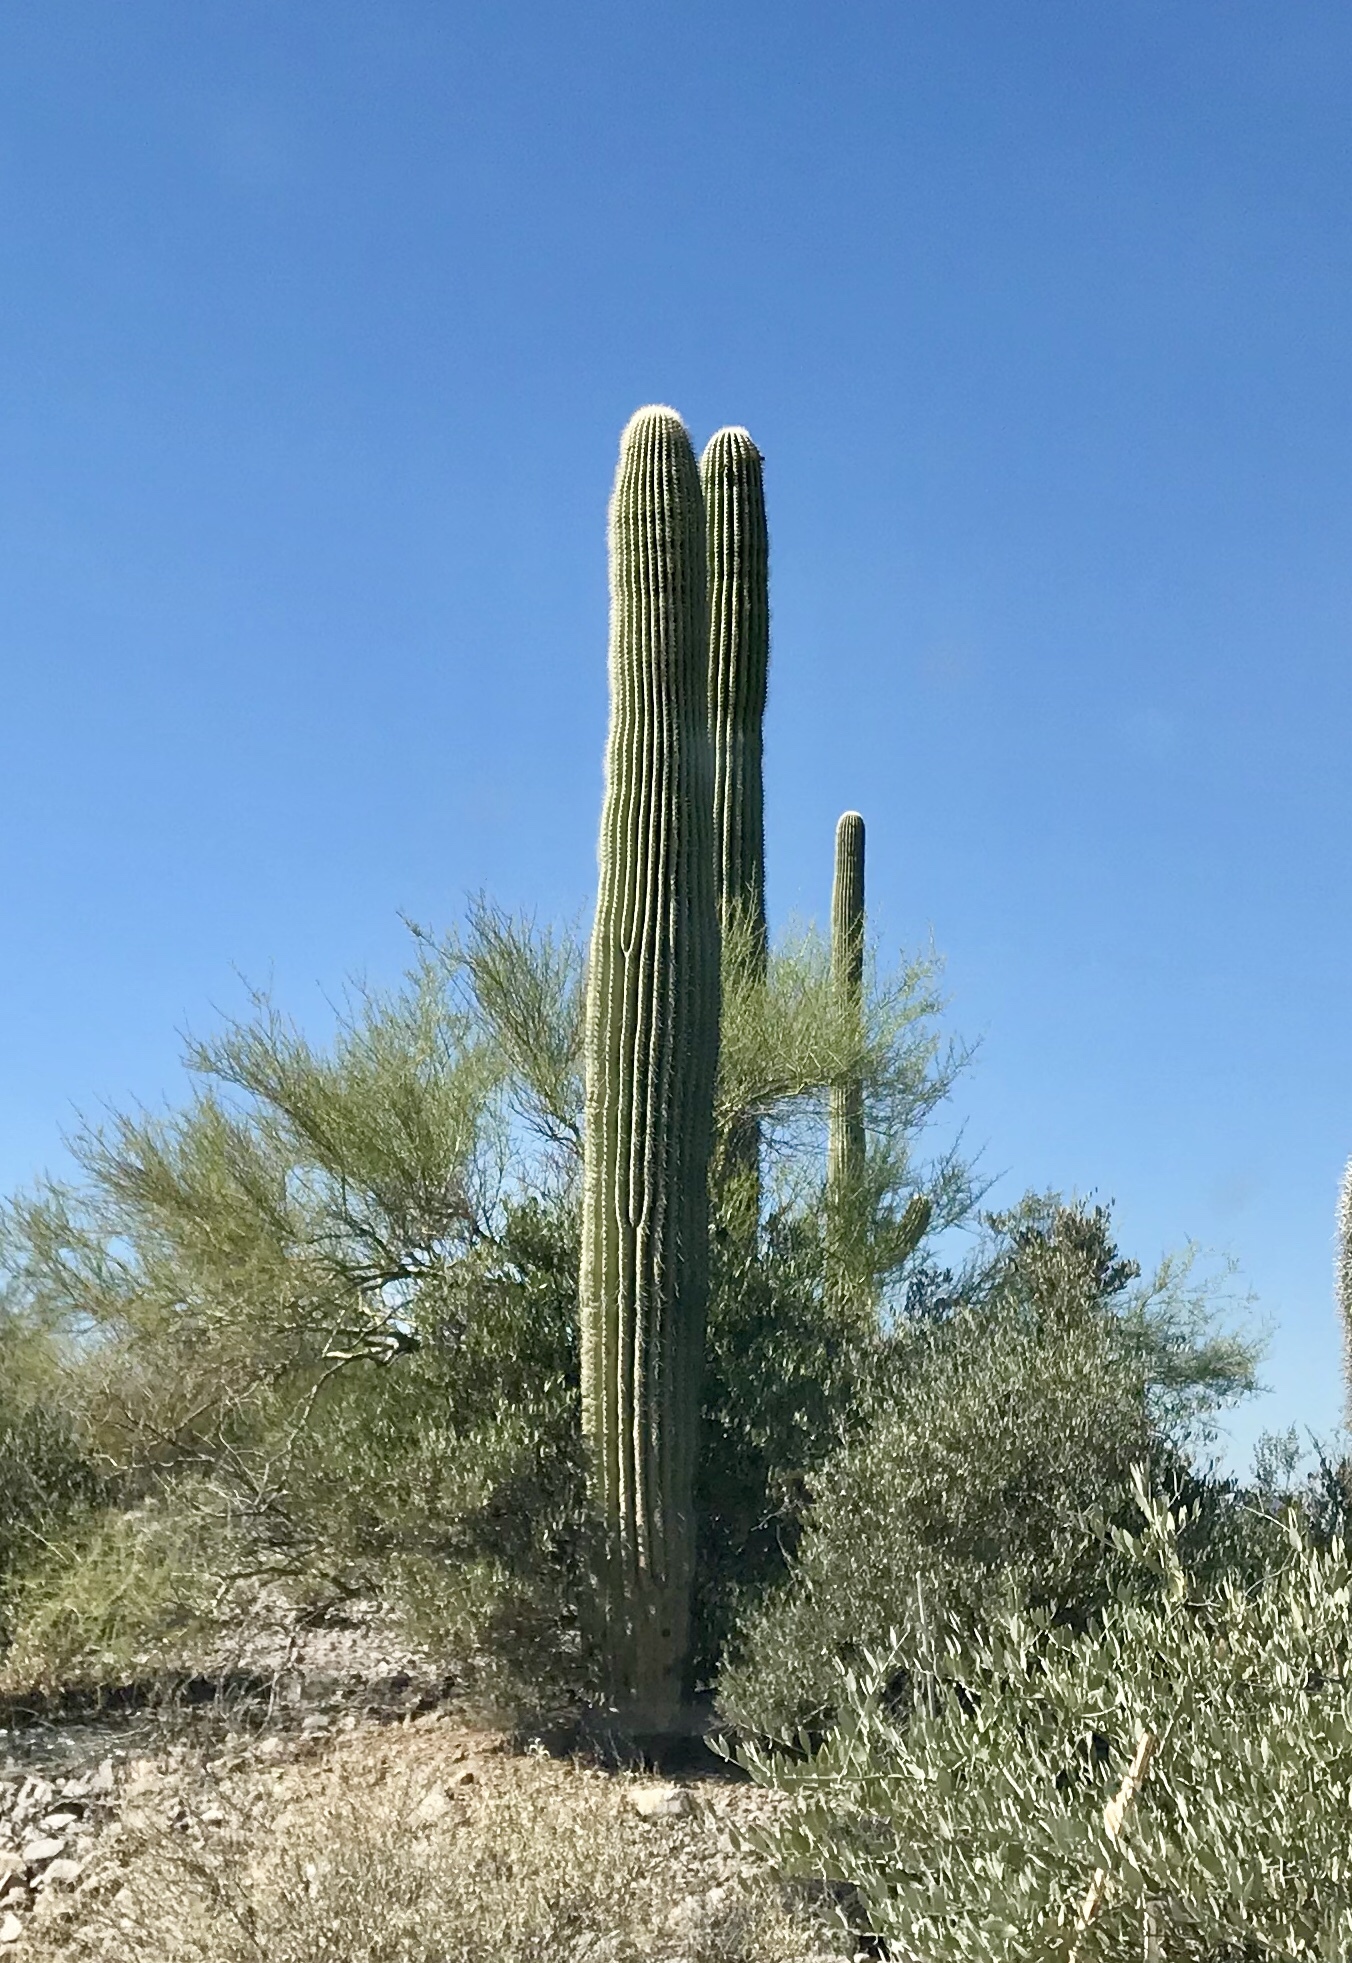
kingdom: Plantae
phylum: Tracheophyta
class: Magnoliopsida
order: Caryophyllales
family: Cactaceae
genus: Carnegiea
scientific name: Carnegiea gigantea
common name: Saguaro
